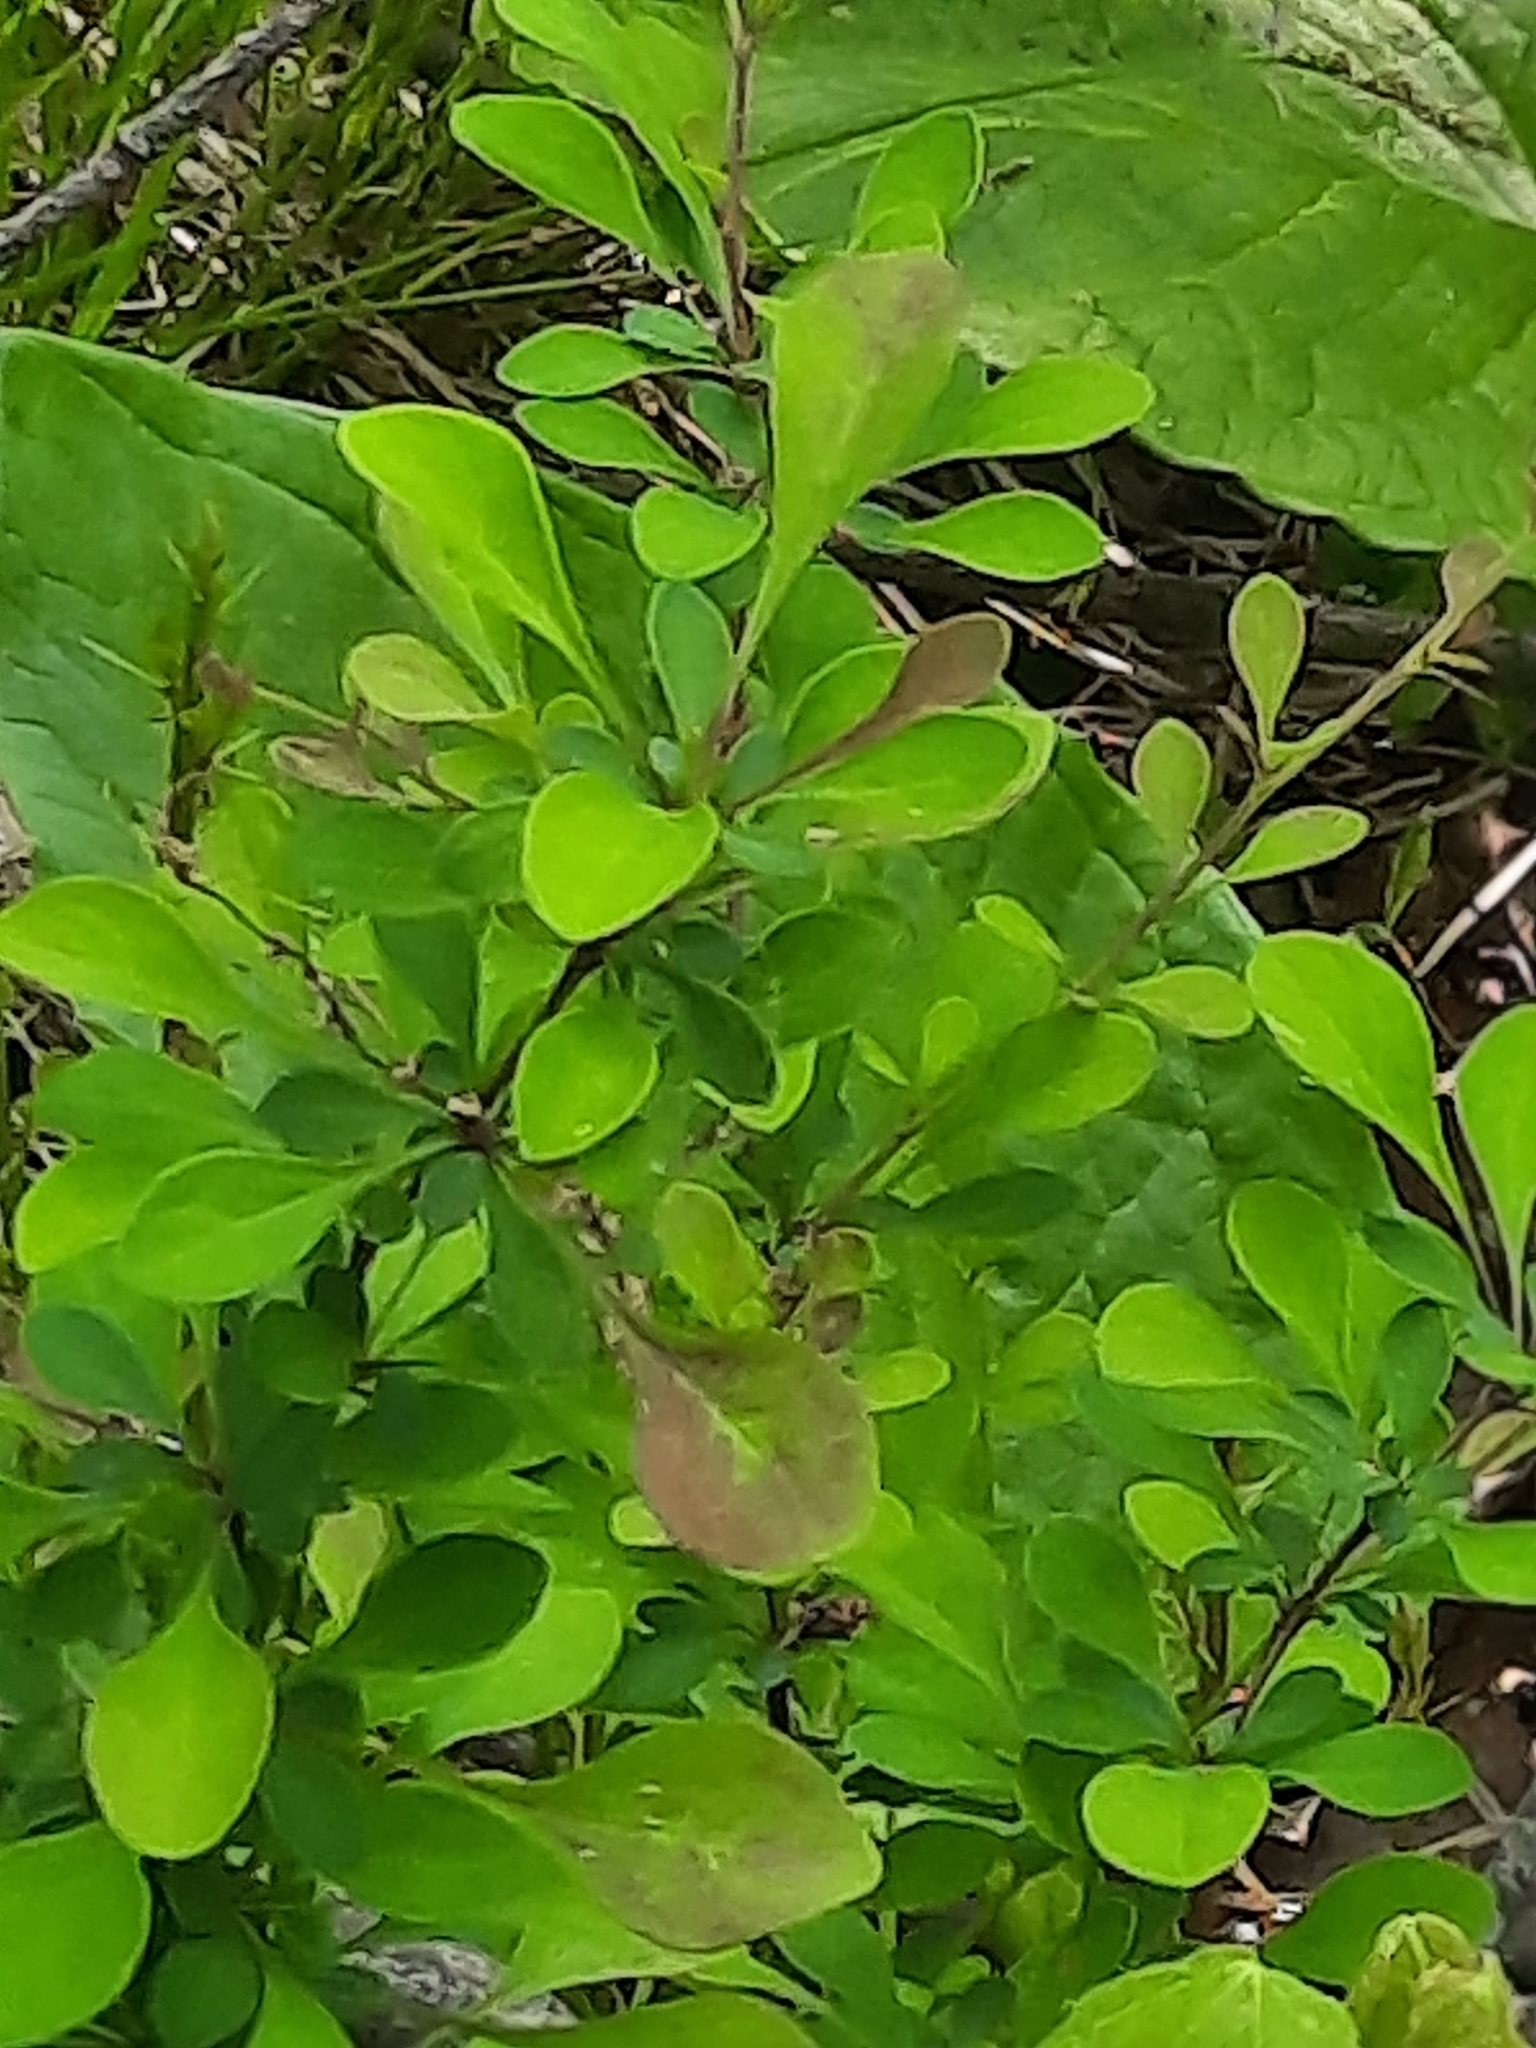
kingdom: Plantae
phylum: Tracheophyta
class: Magnoliopsida
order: Ranunculales
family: Berberidaceae
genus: Berberis
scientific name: Berberis thunbergii
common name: Japanese barberry
